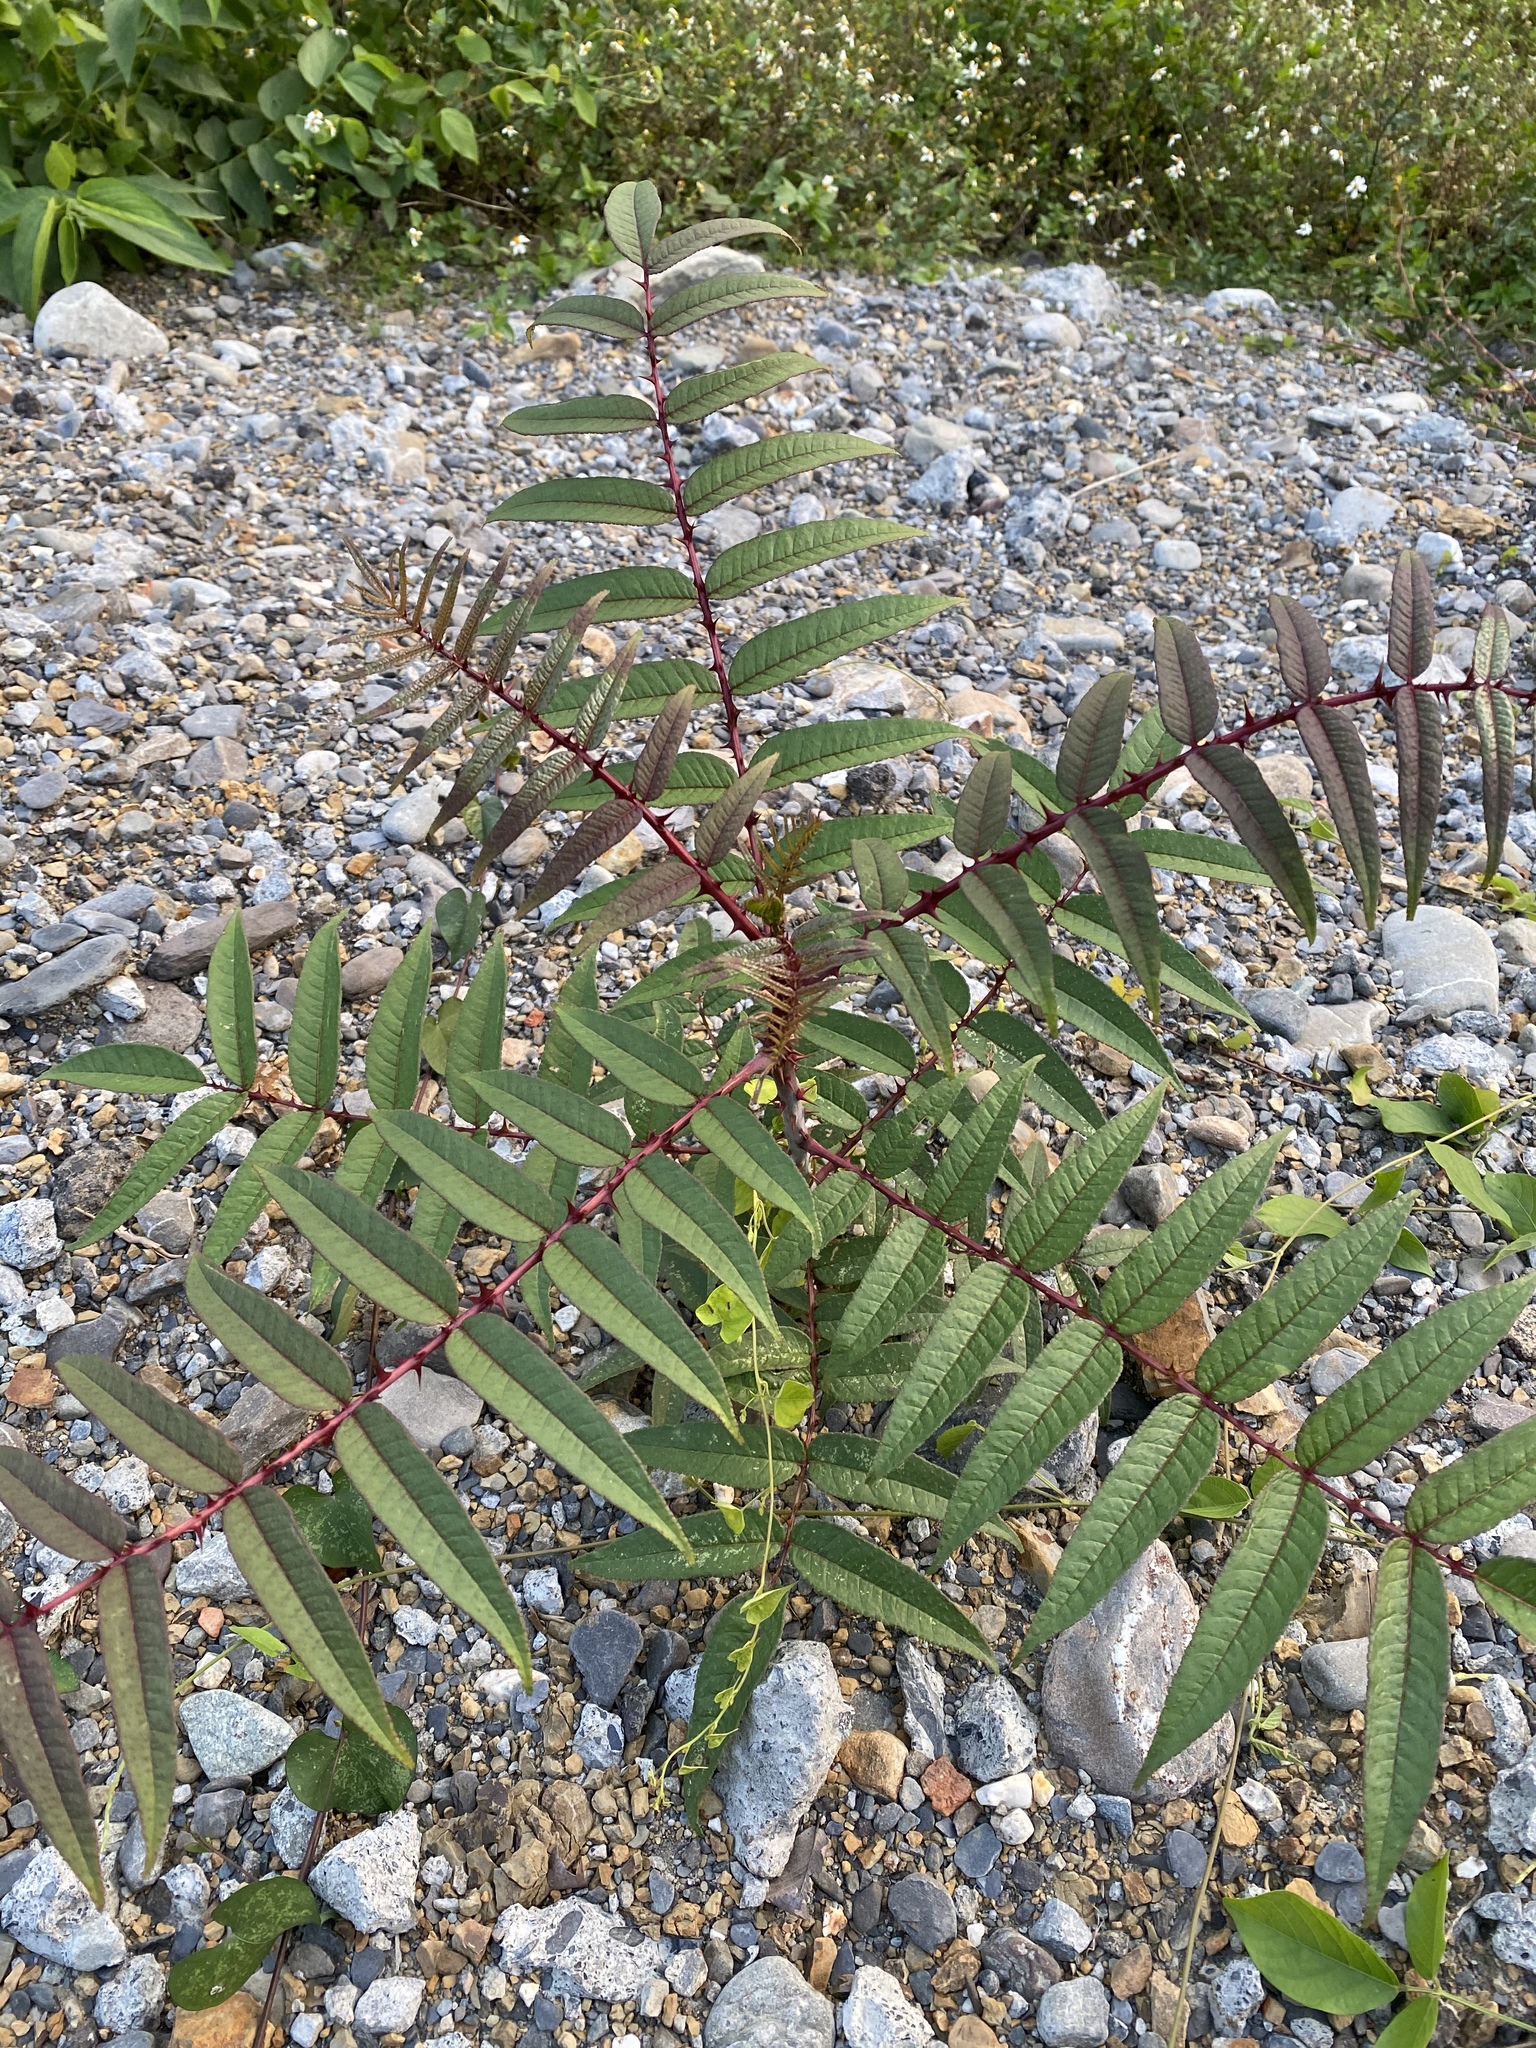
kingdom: Plantae
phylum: Tracheophyta
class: Magnoliopsida
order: Sapindales
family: Rutaceae
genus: Zanthoxylum
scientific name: Zanthoxylum ailanthoides
